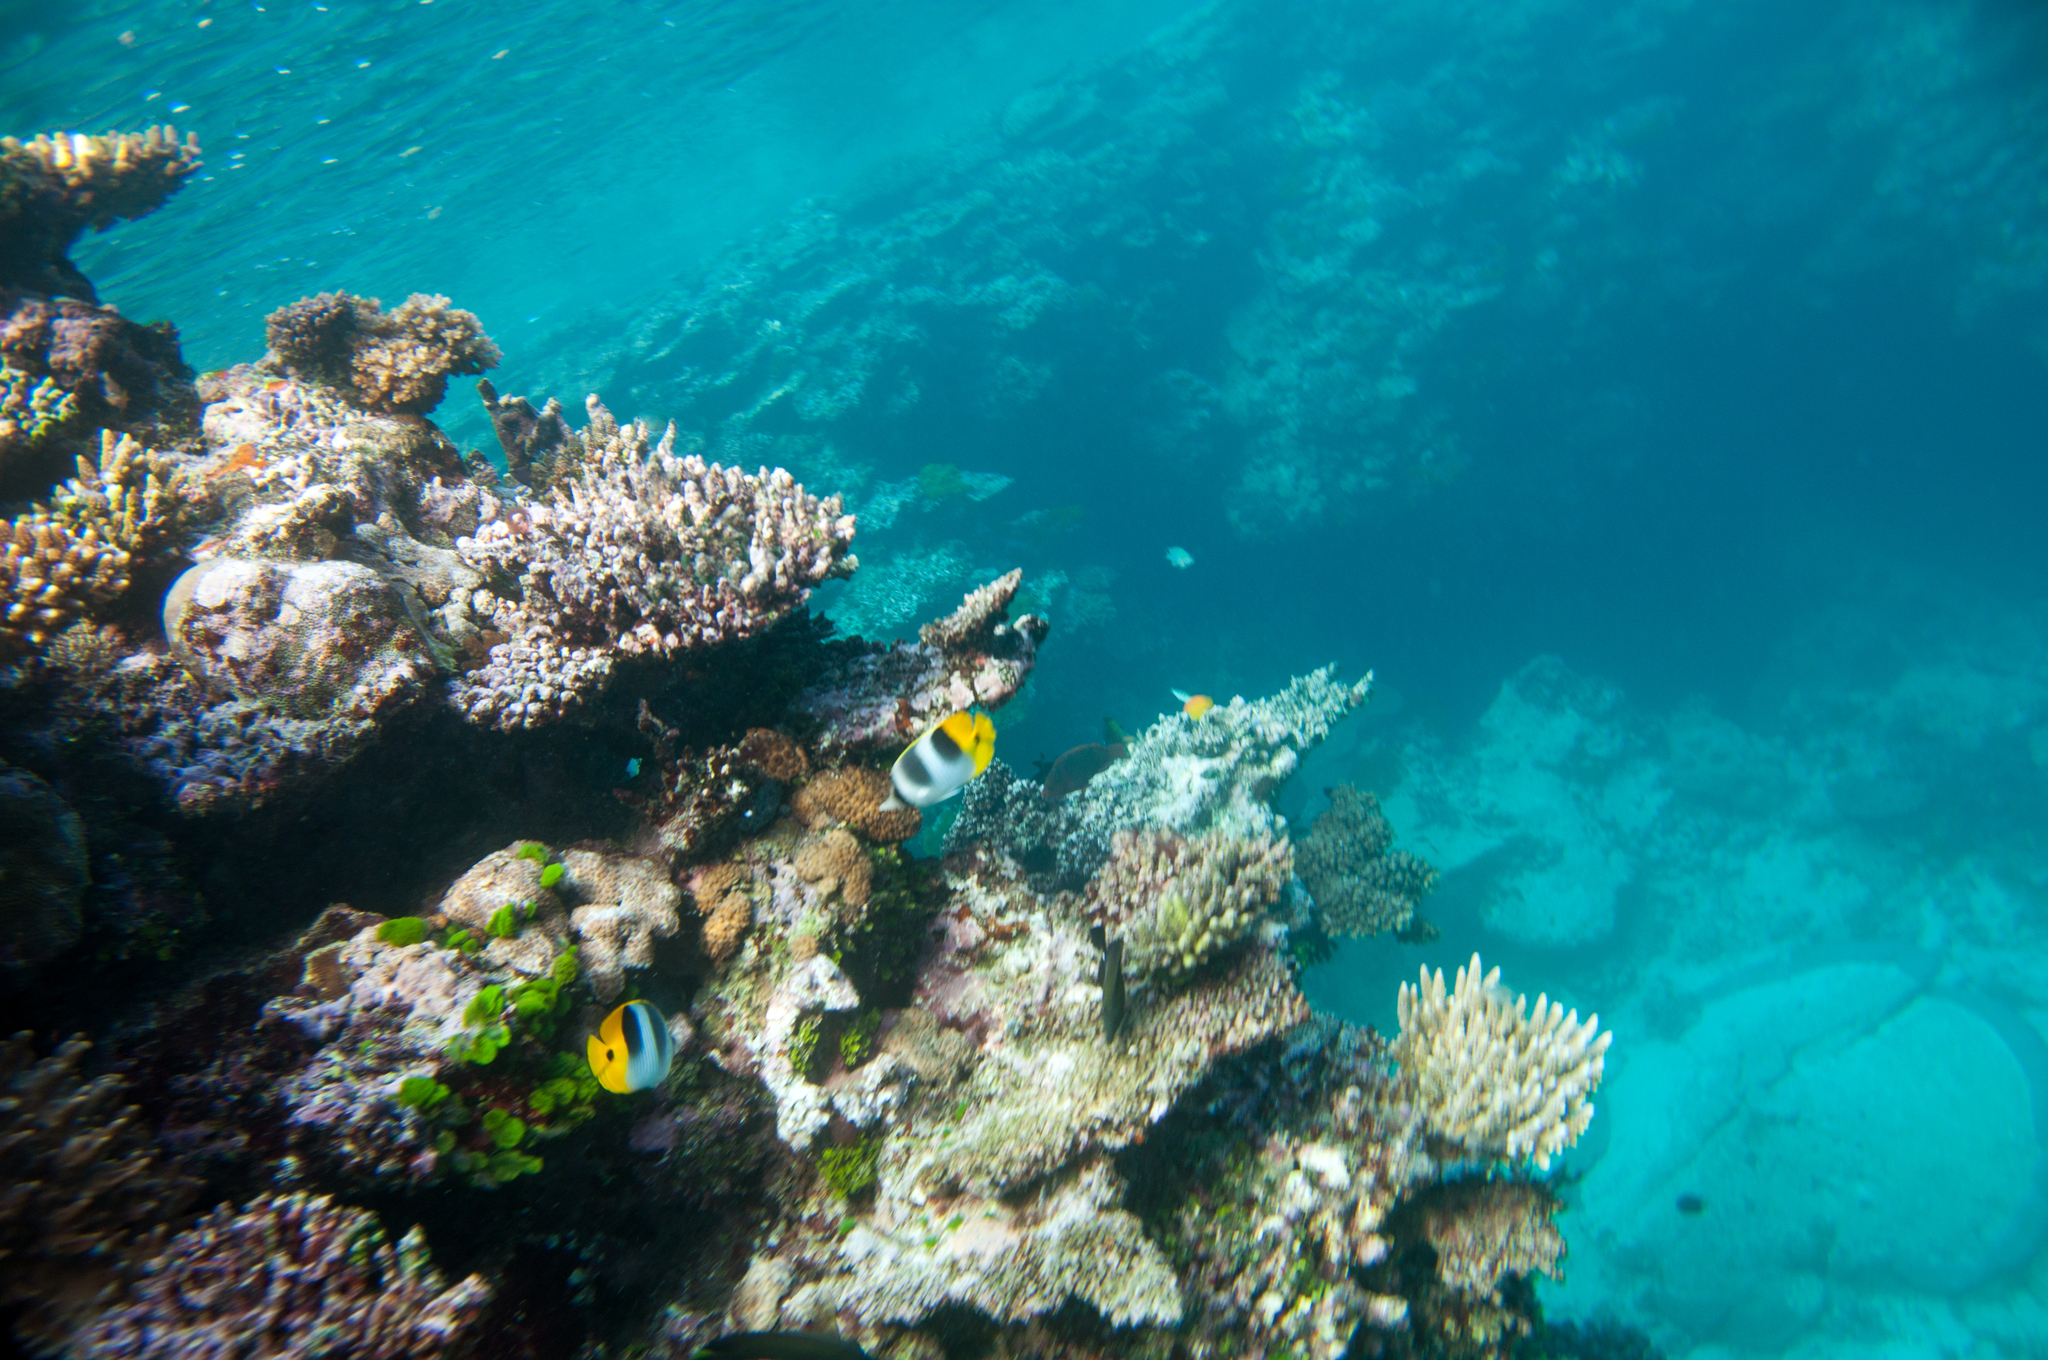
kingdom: Animalia
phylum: Chordata
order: Perciformes
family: Chaetodontidae
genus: Chaetodon
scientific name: Chaetodon ulietensis
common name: Pacific double-saddle butterflyfish
